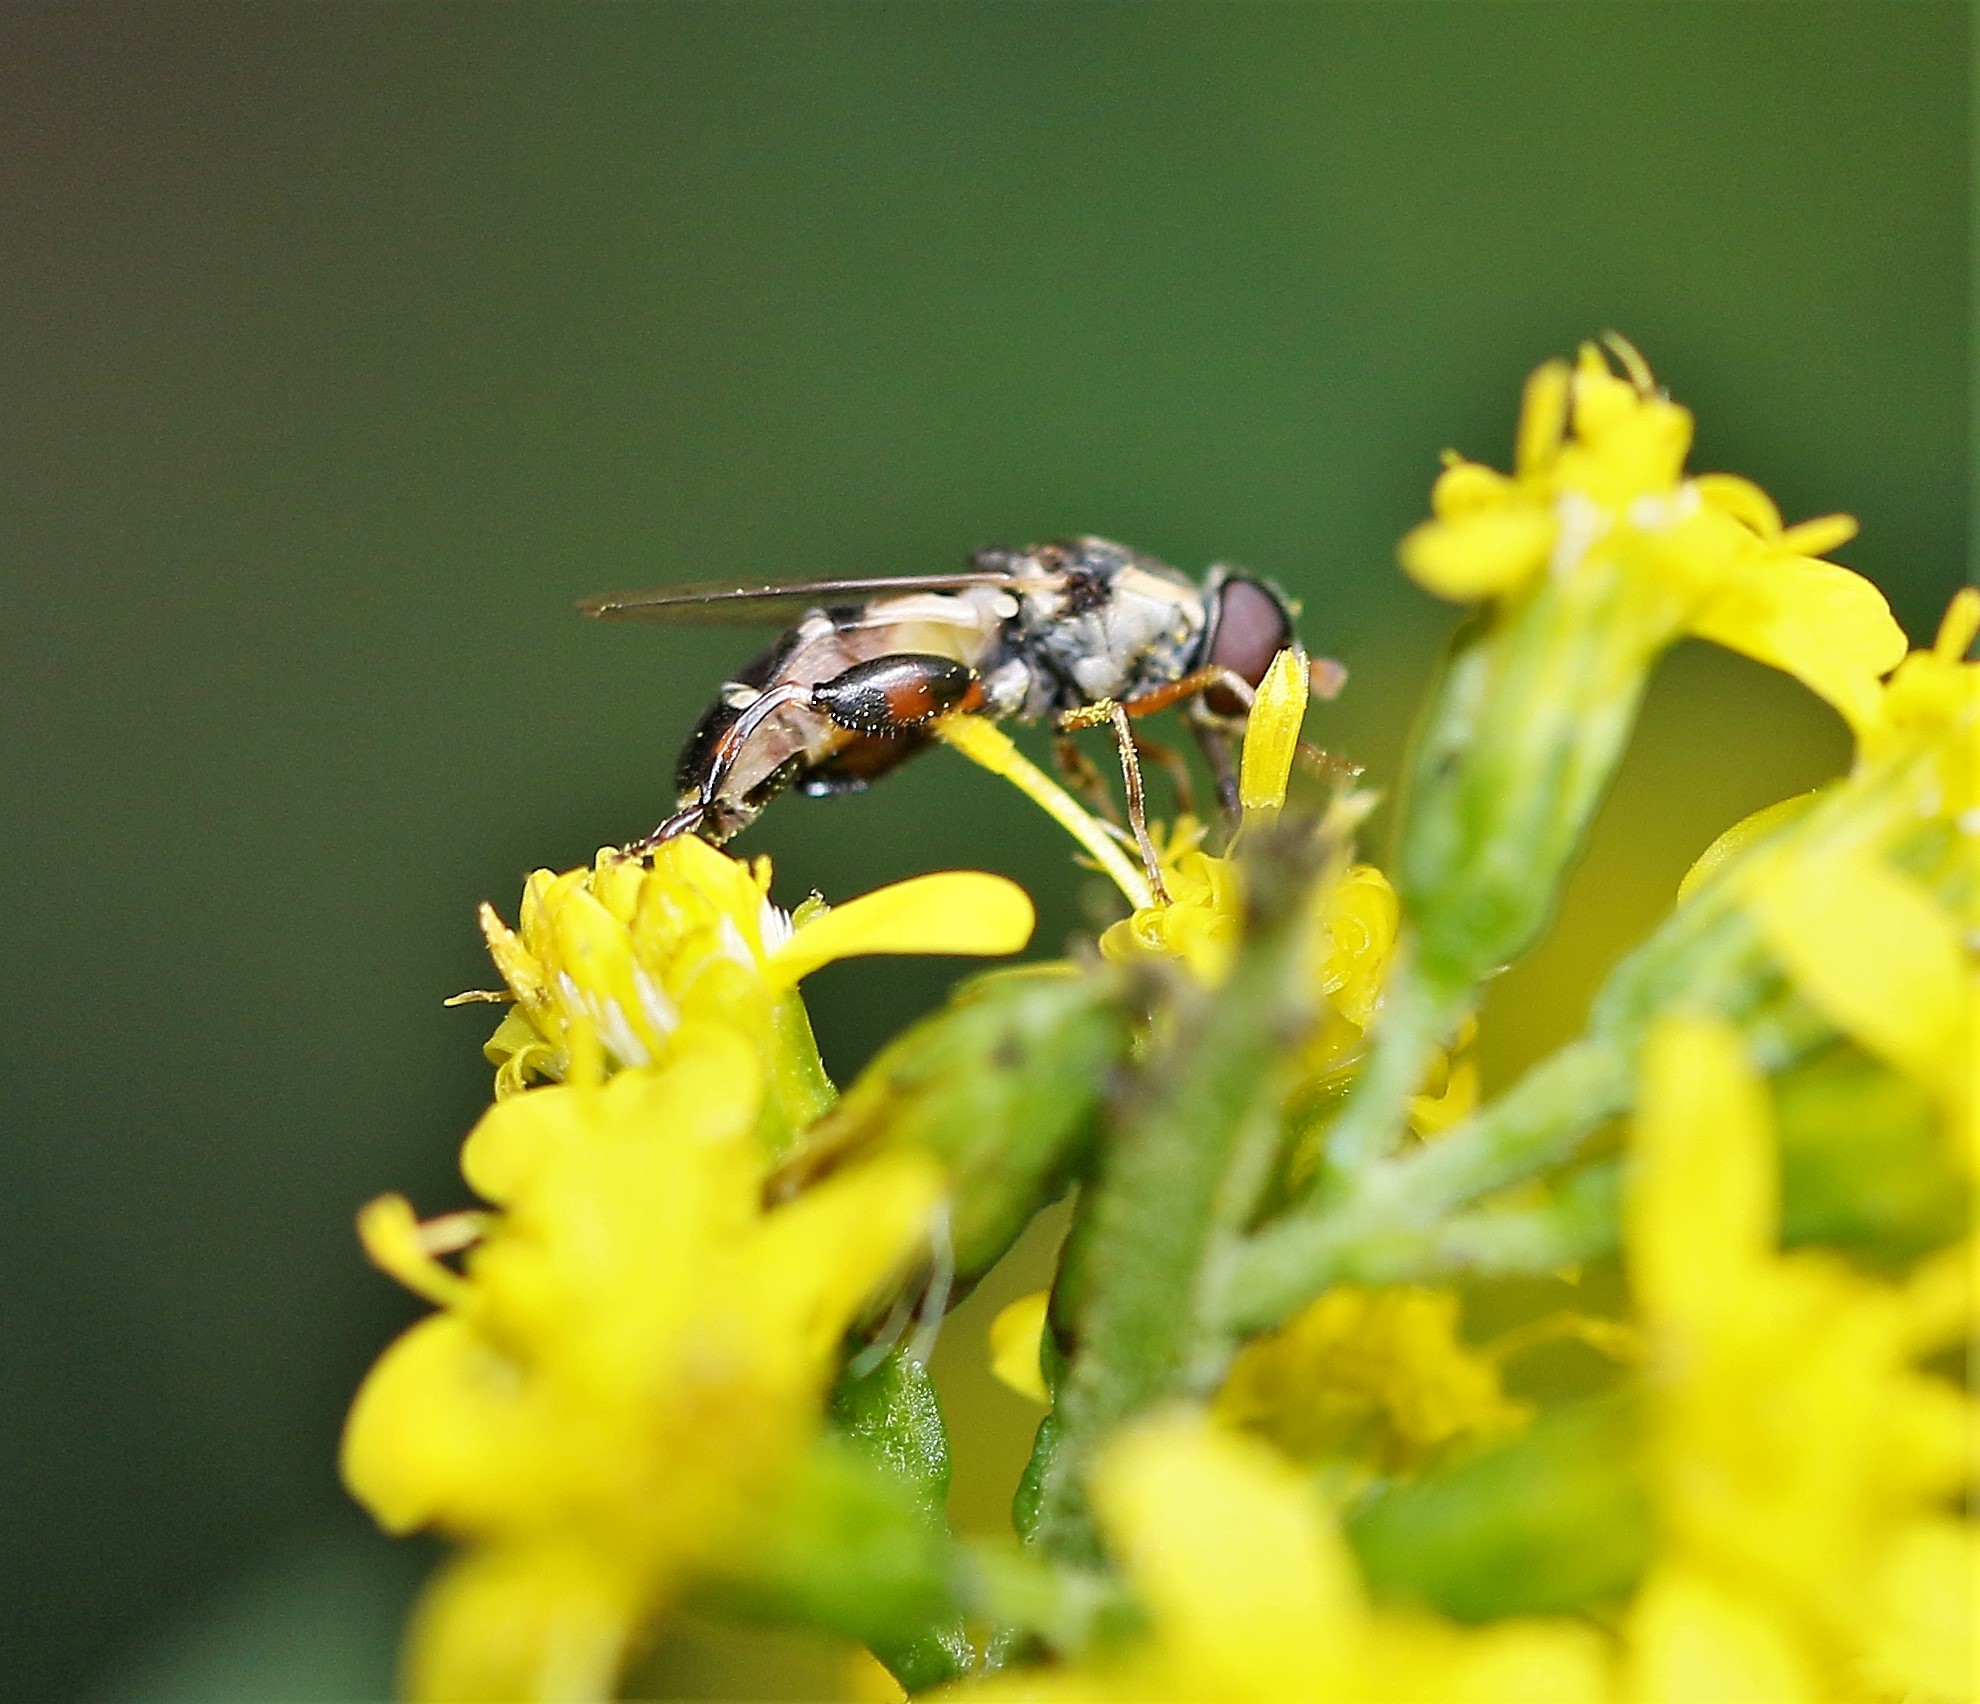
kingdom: Animalia
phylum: Arthropoda
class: Insecta
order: Diptera
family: Syrphidae
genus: Syritta
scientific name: Syritta pipiens
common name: Hover fly
